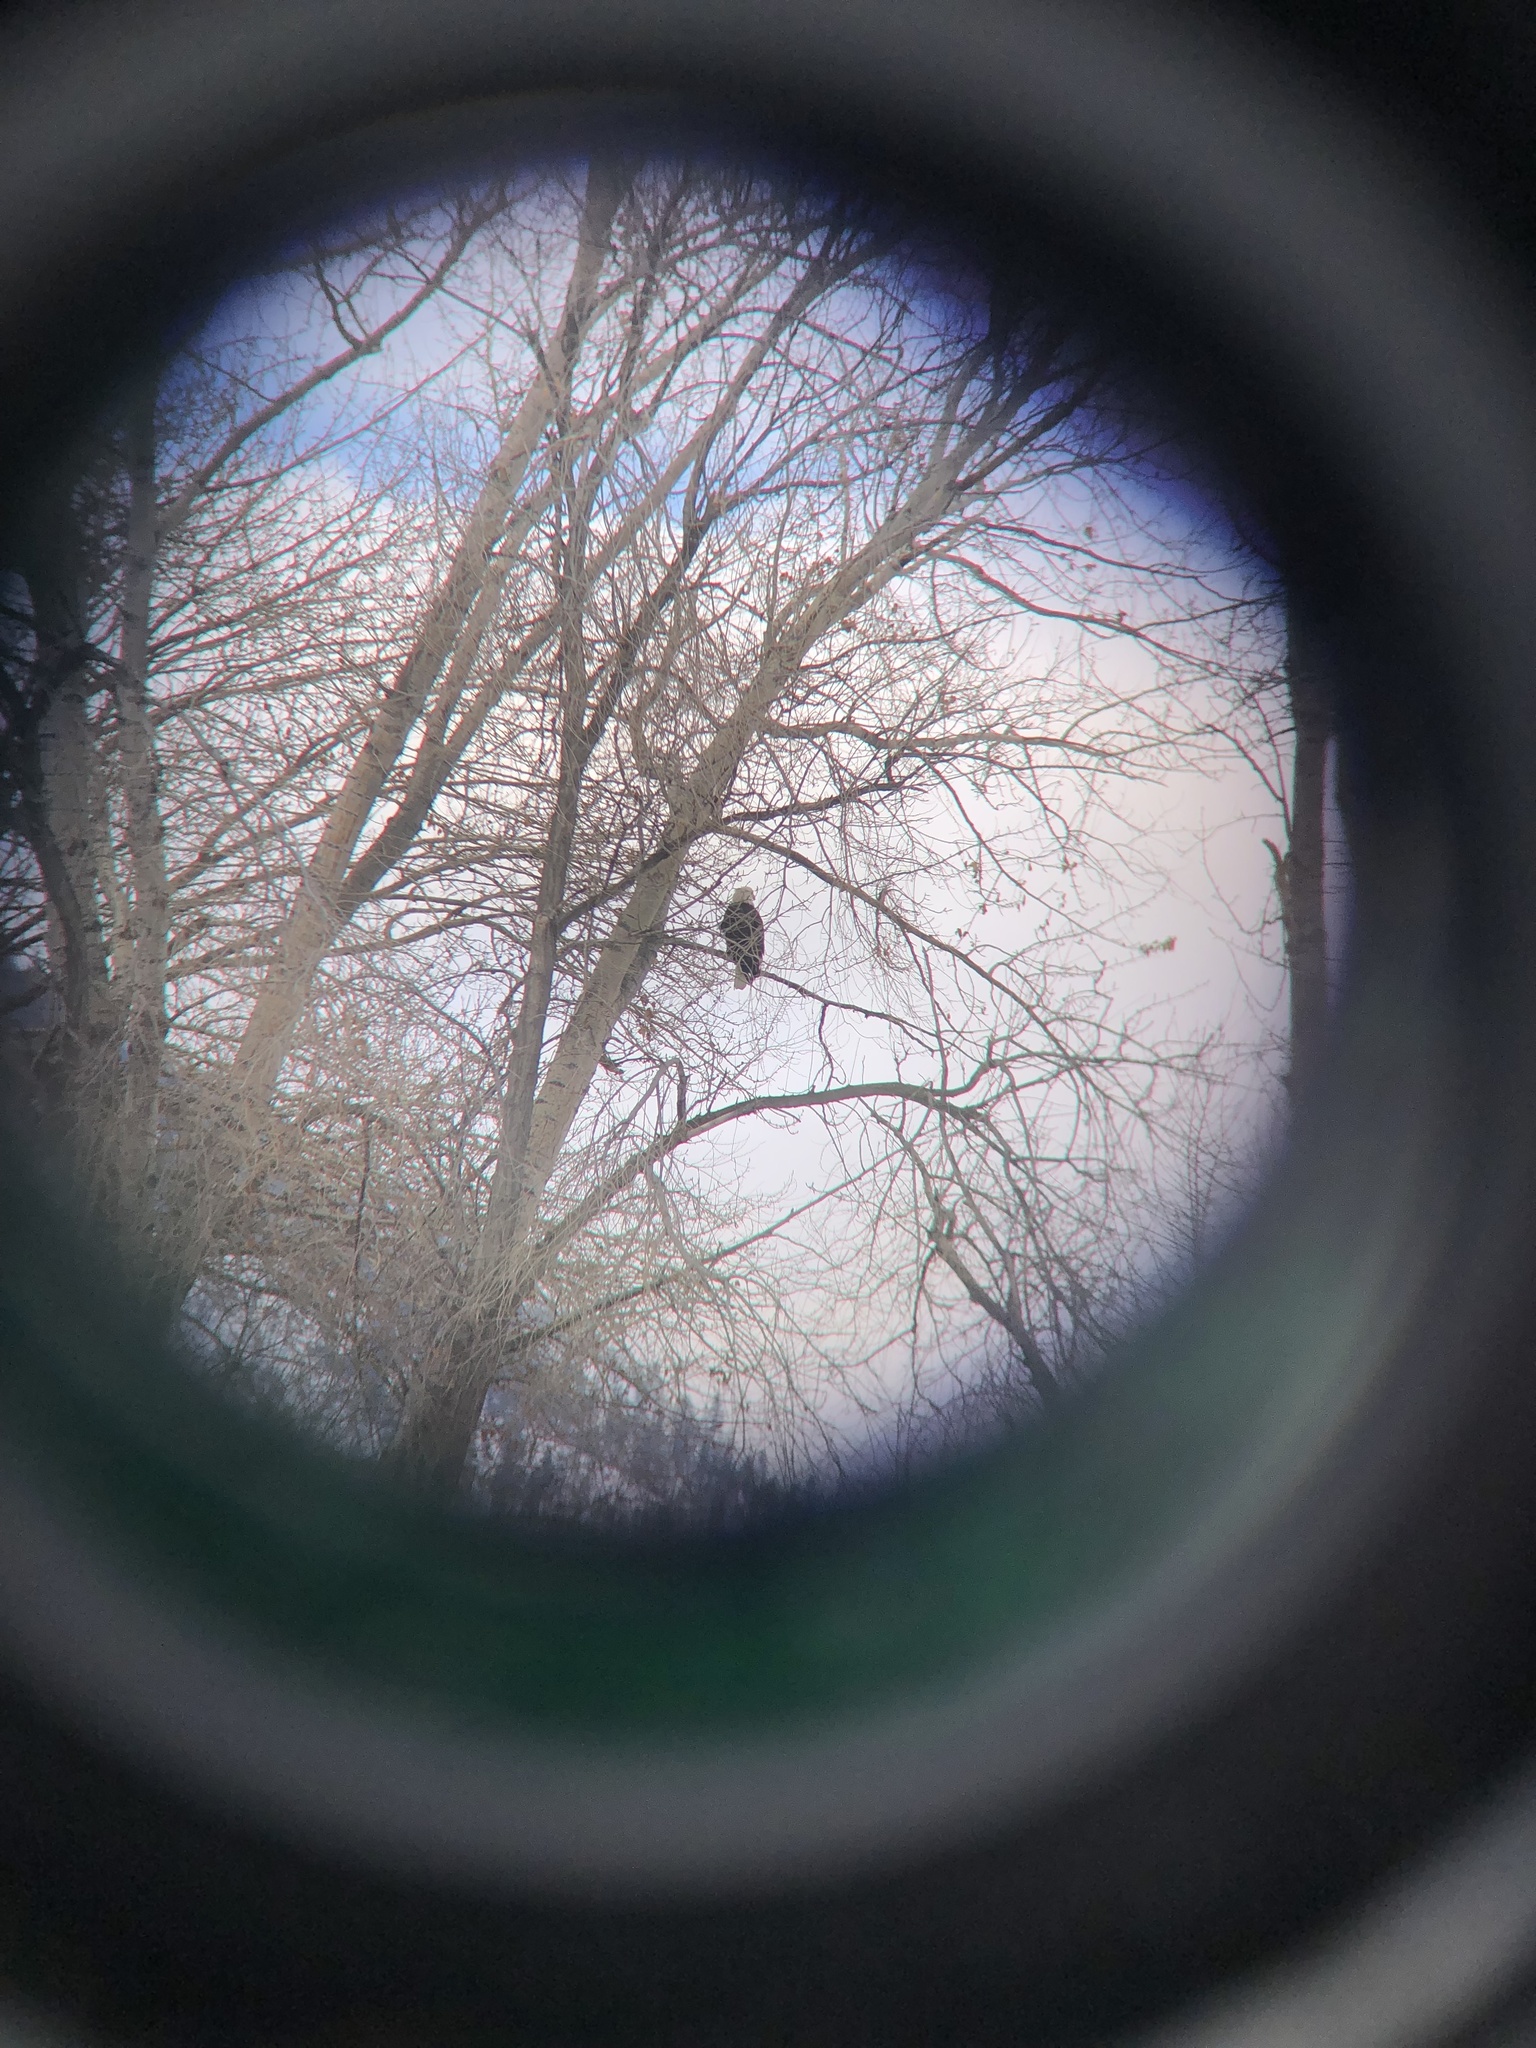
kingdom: Animalia
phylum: Chordata
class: Aves
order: Accipitriformes
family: Accipitridae
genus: Haliaeetus
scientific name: Haliaeetus leucocephalus
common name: Bald eagle
